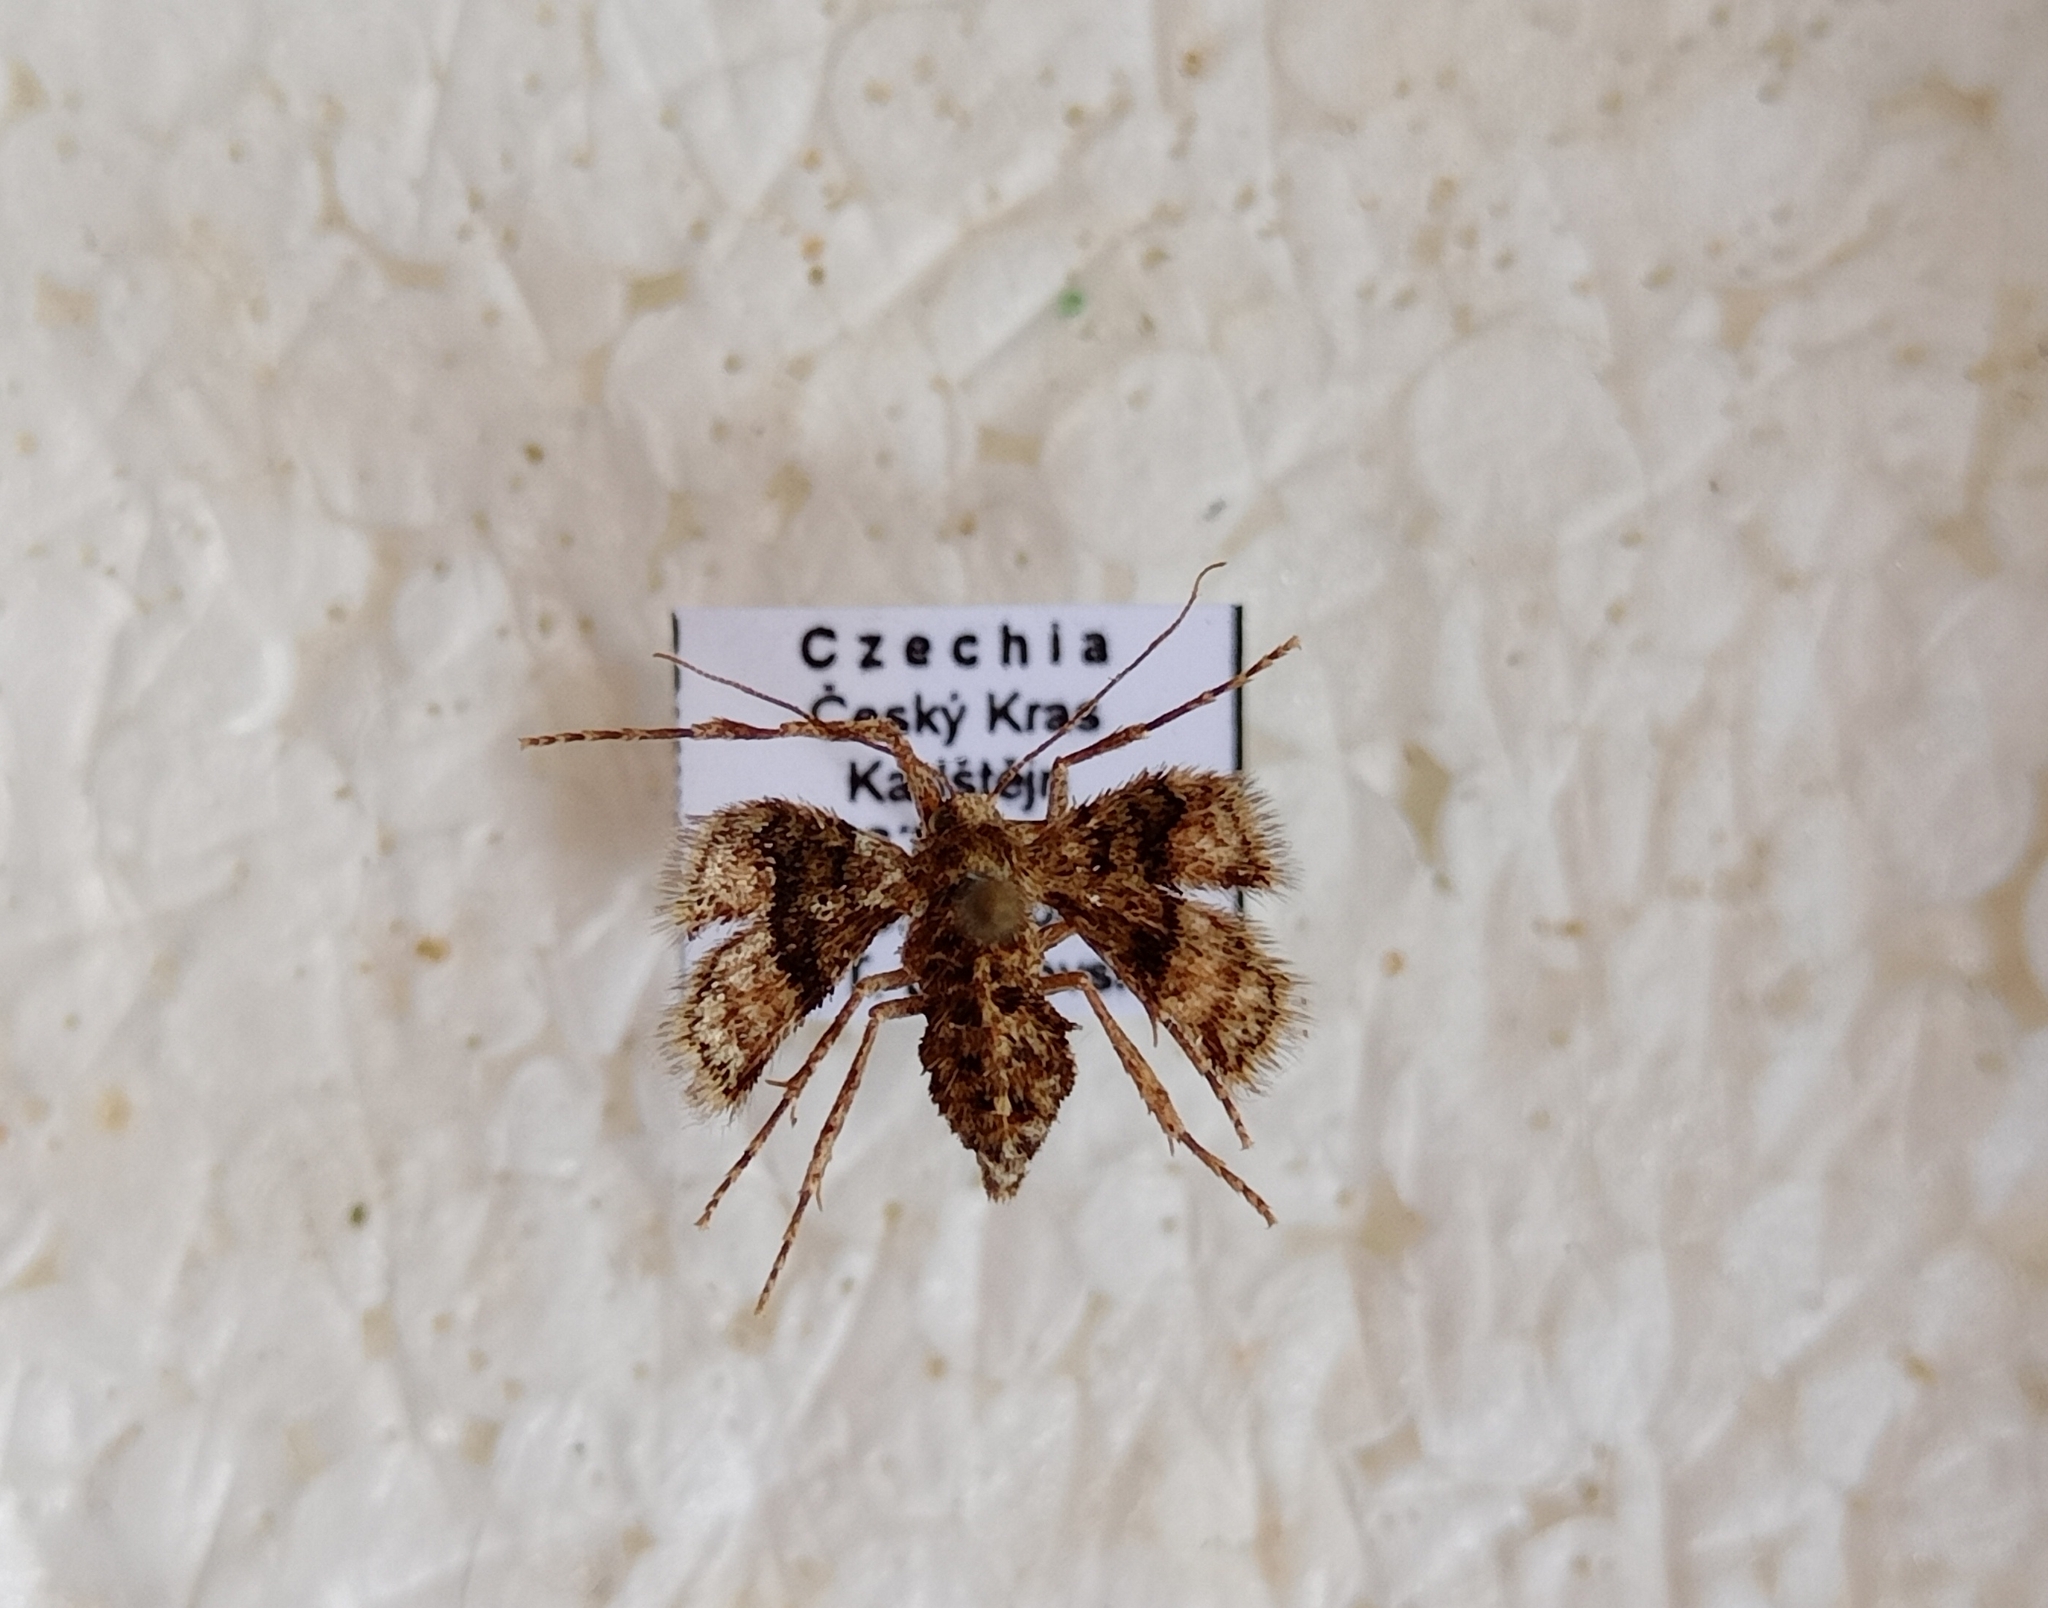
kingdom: Animalia
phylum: Arthropoda
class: Insecta
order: Lepidoptera
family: Geometridae
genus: Agriopis
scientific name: Agriopis marginaria
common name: Dotted border
